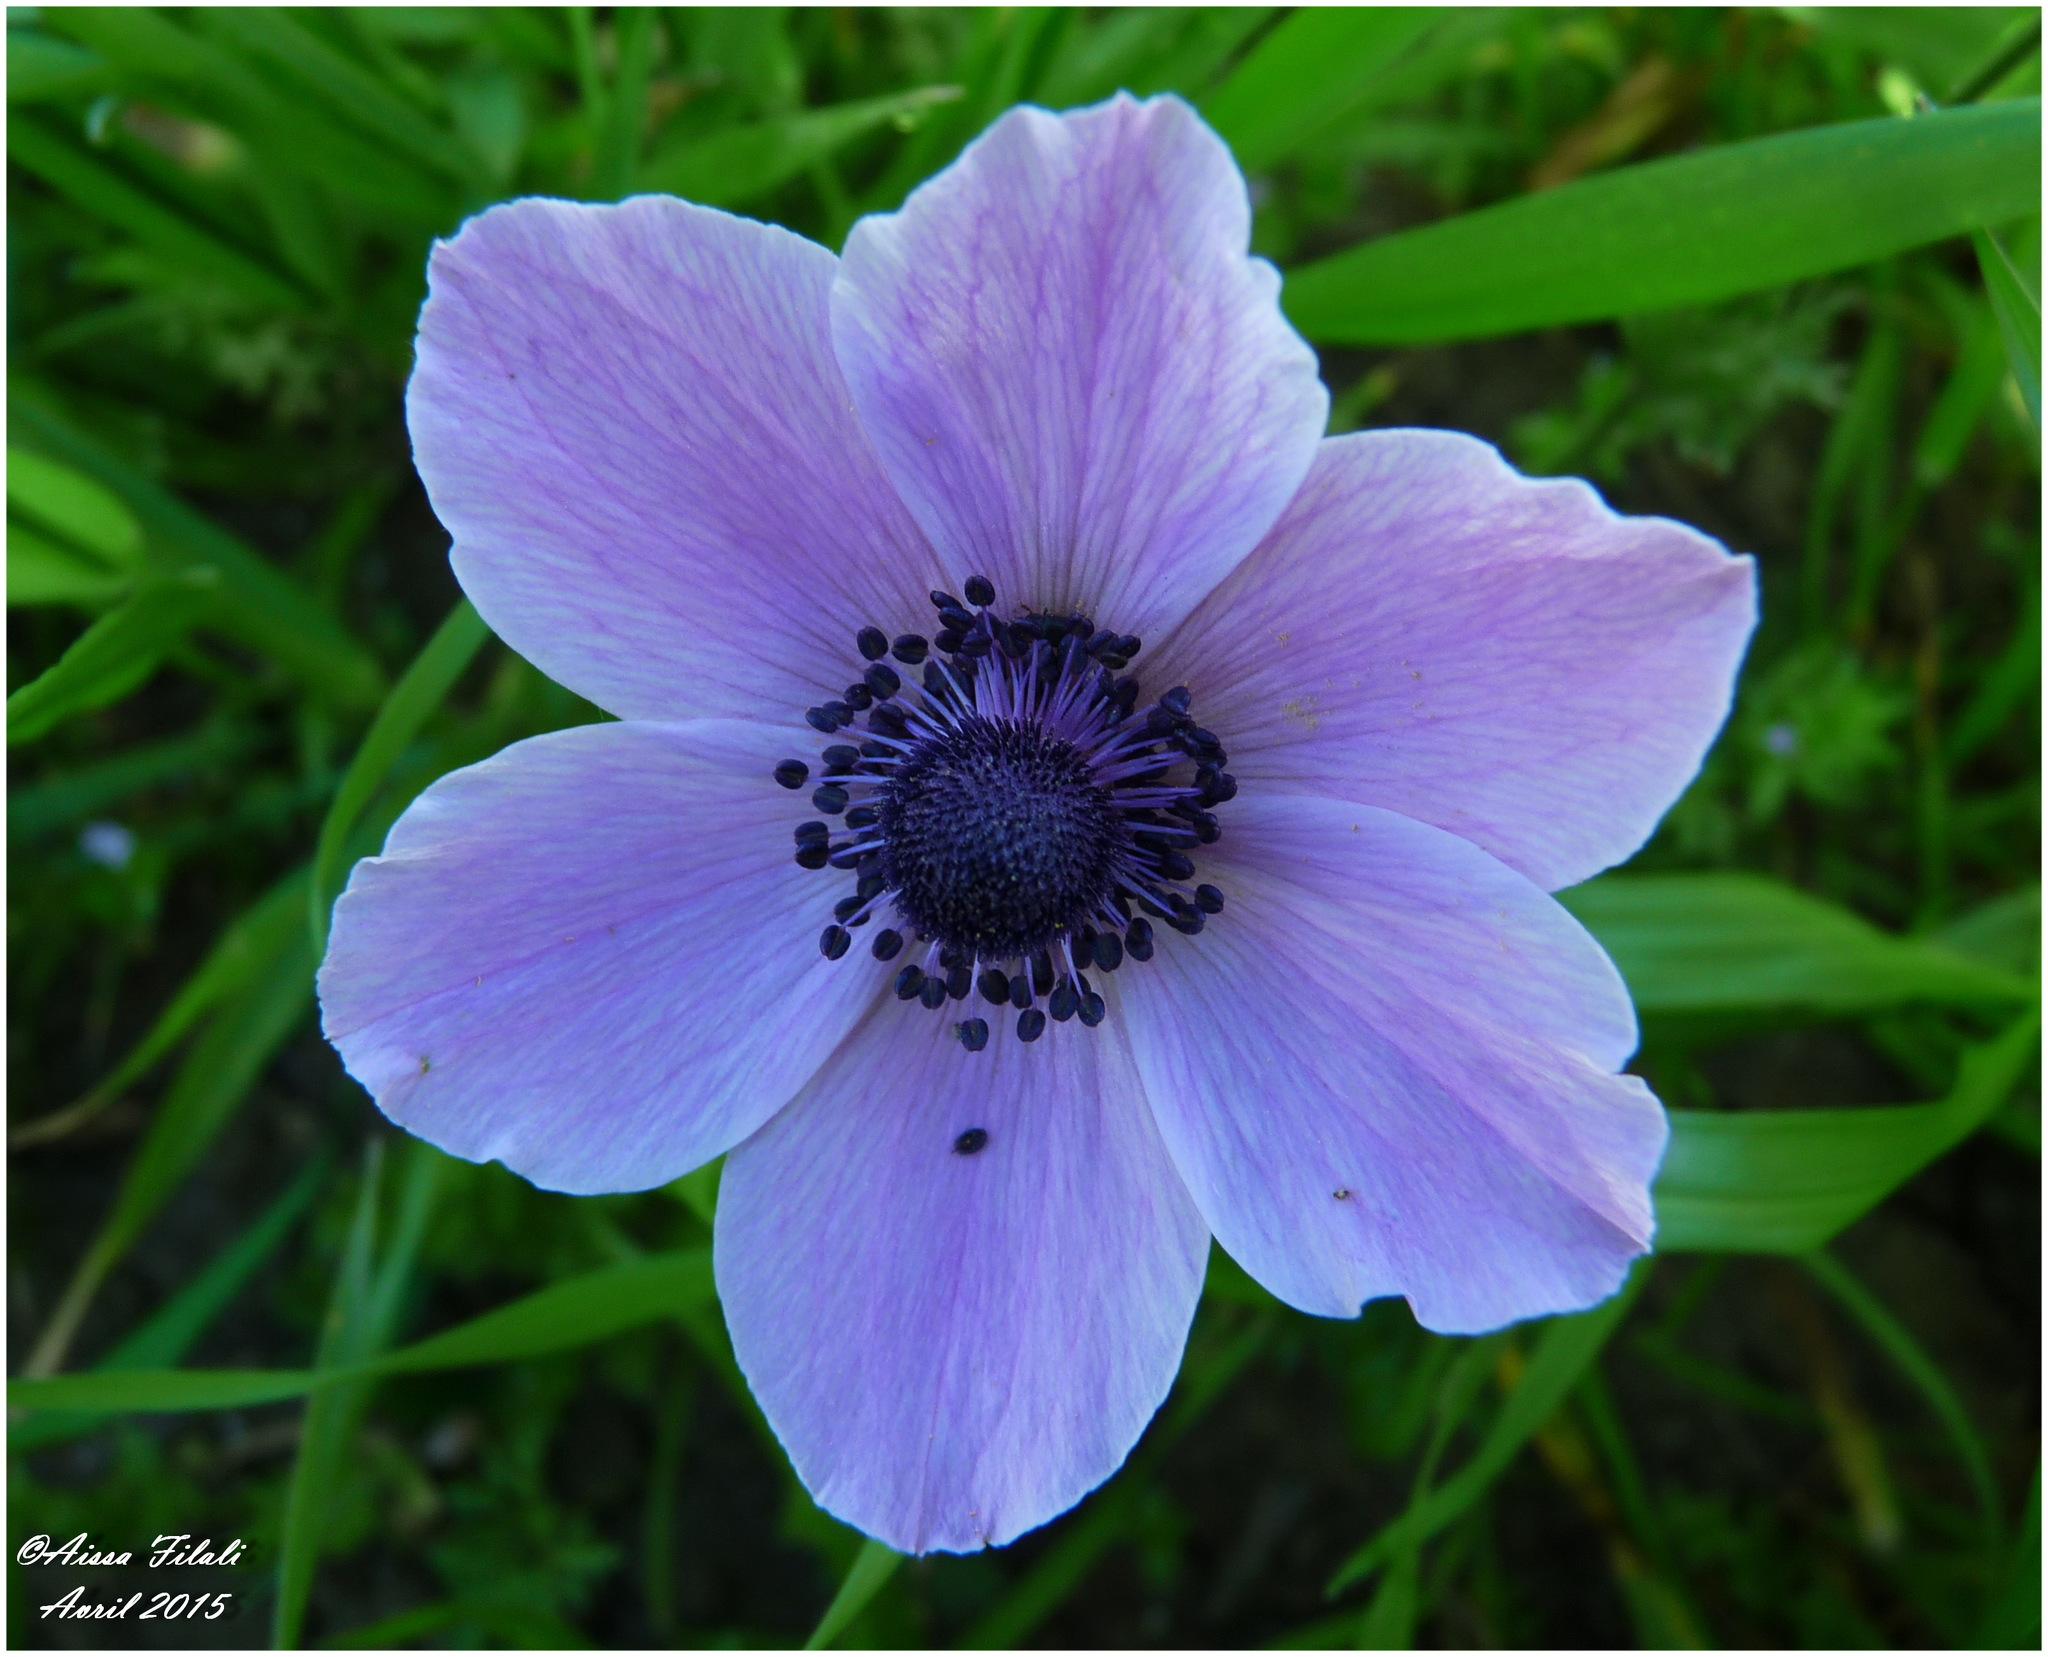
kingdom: Plantae
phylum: Tracheophyta
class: Magnoliopsida
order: Ranunculales
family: Ranunculaceae
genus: Anemone
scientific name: Anemone coronaria
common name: Poppy anemone
